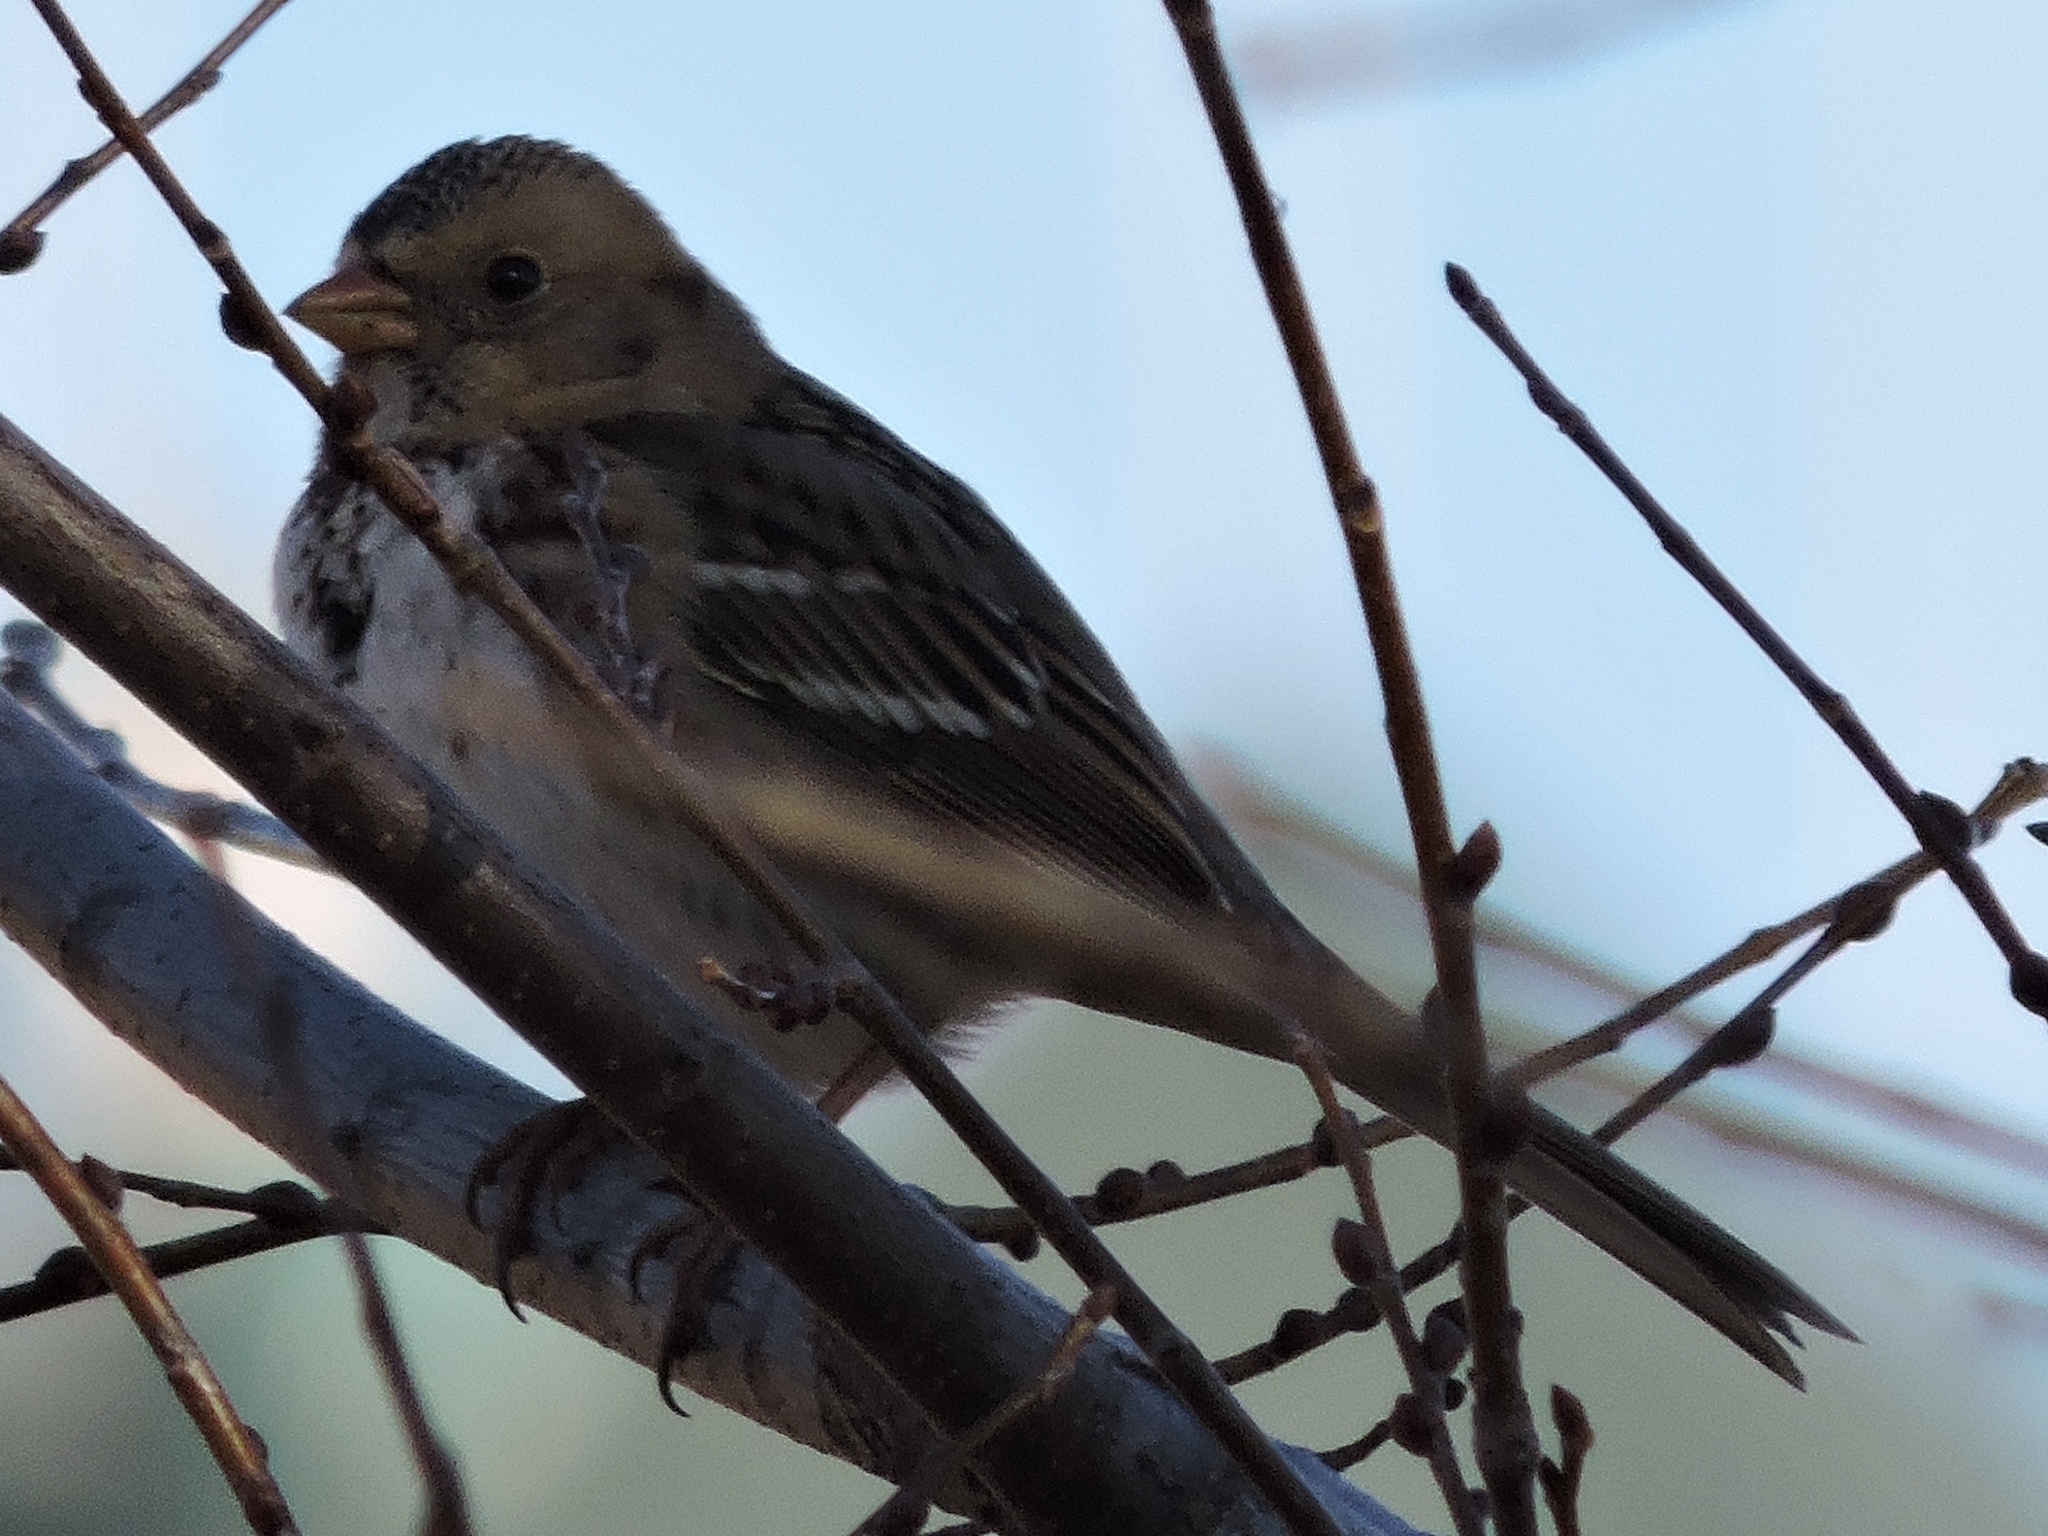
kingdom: Animalia
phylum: Chordata
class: Aves
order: Passeriformes
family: Passerellidae
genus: Zonotrichia
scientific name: Zonotrichia querula
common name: Harris's sparrow
